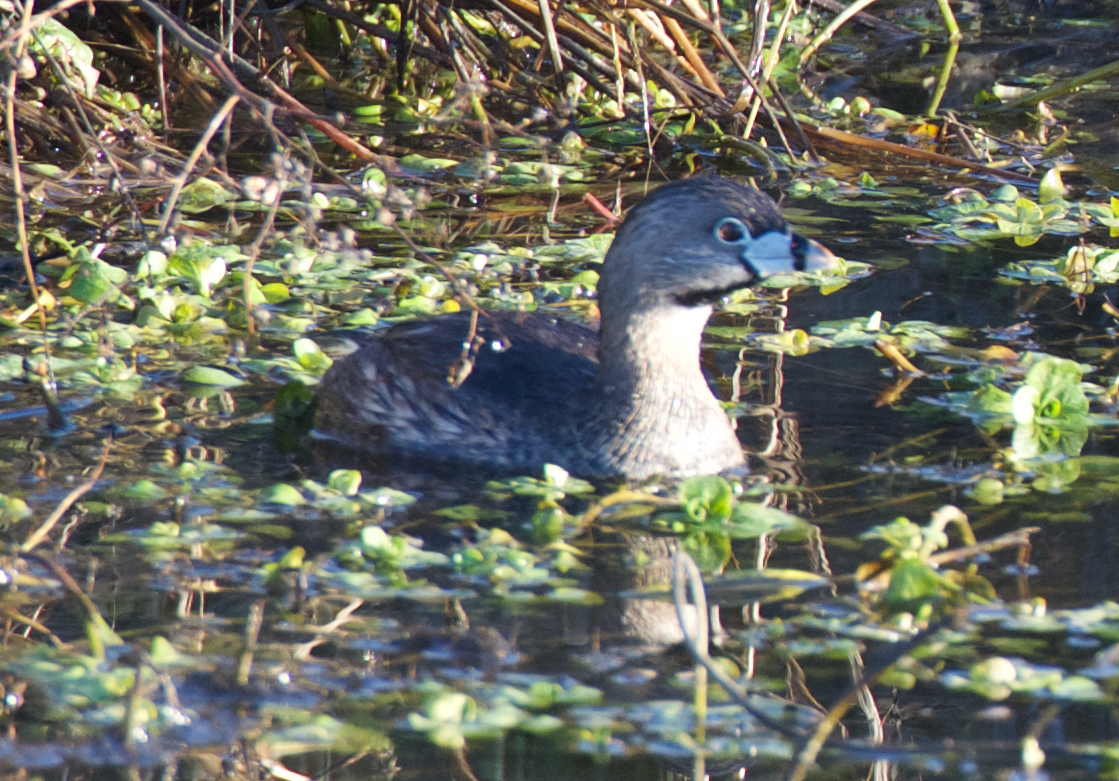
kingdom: Animalia
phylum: Chordata
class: Aves
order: Podicipediformes
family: Podicipedidae
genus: Podilymbus
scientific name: Podilymbus podiceps
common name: Pied-billed grebe
